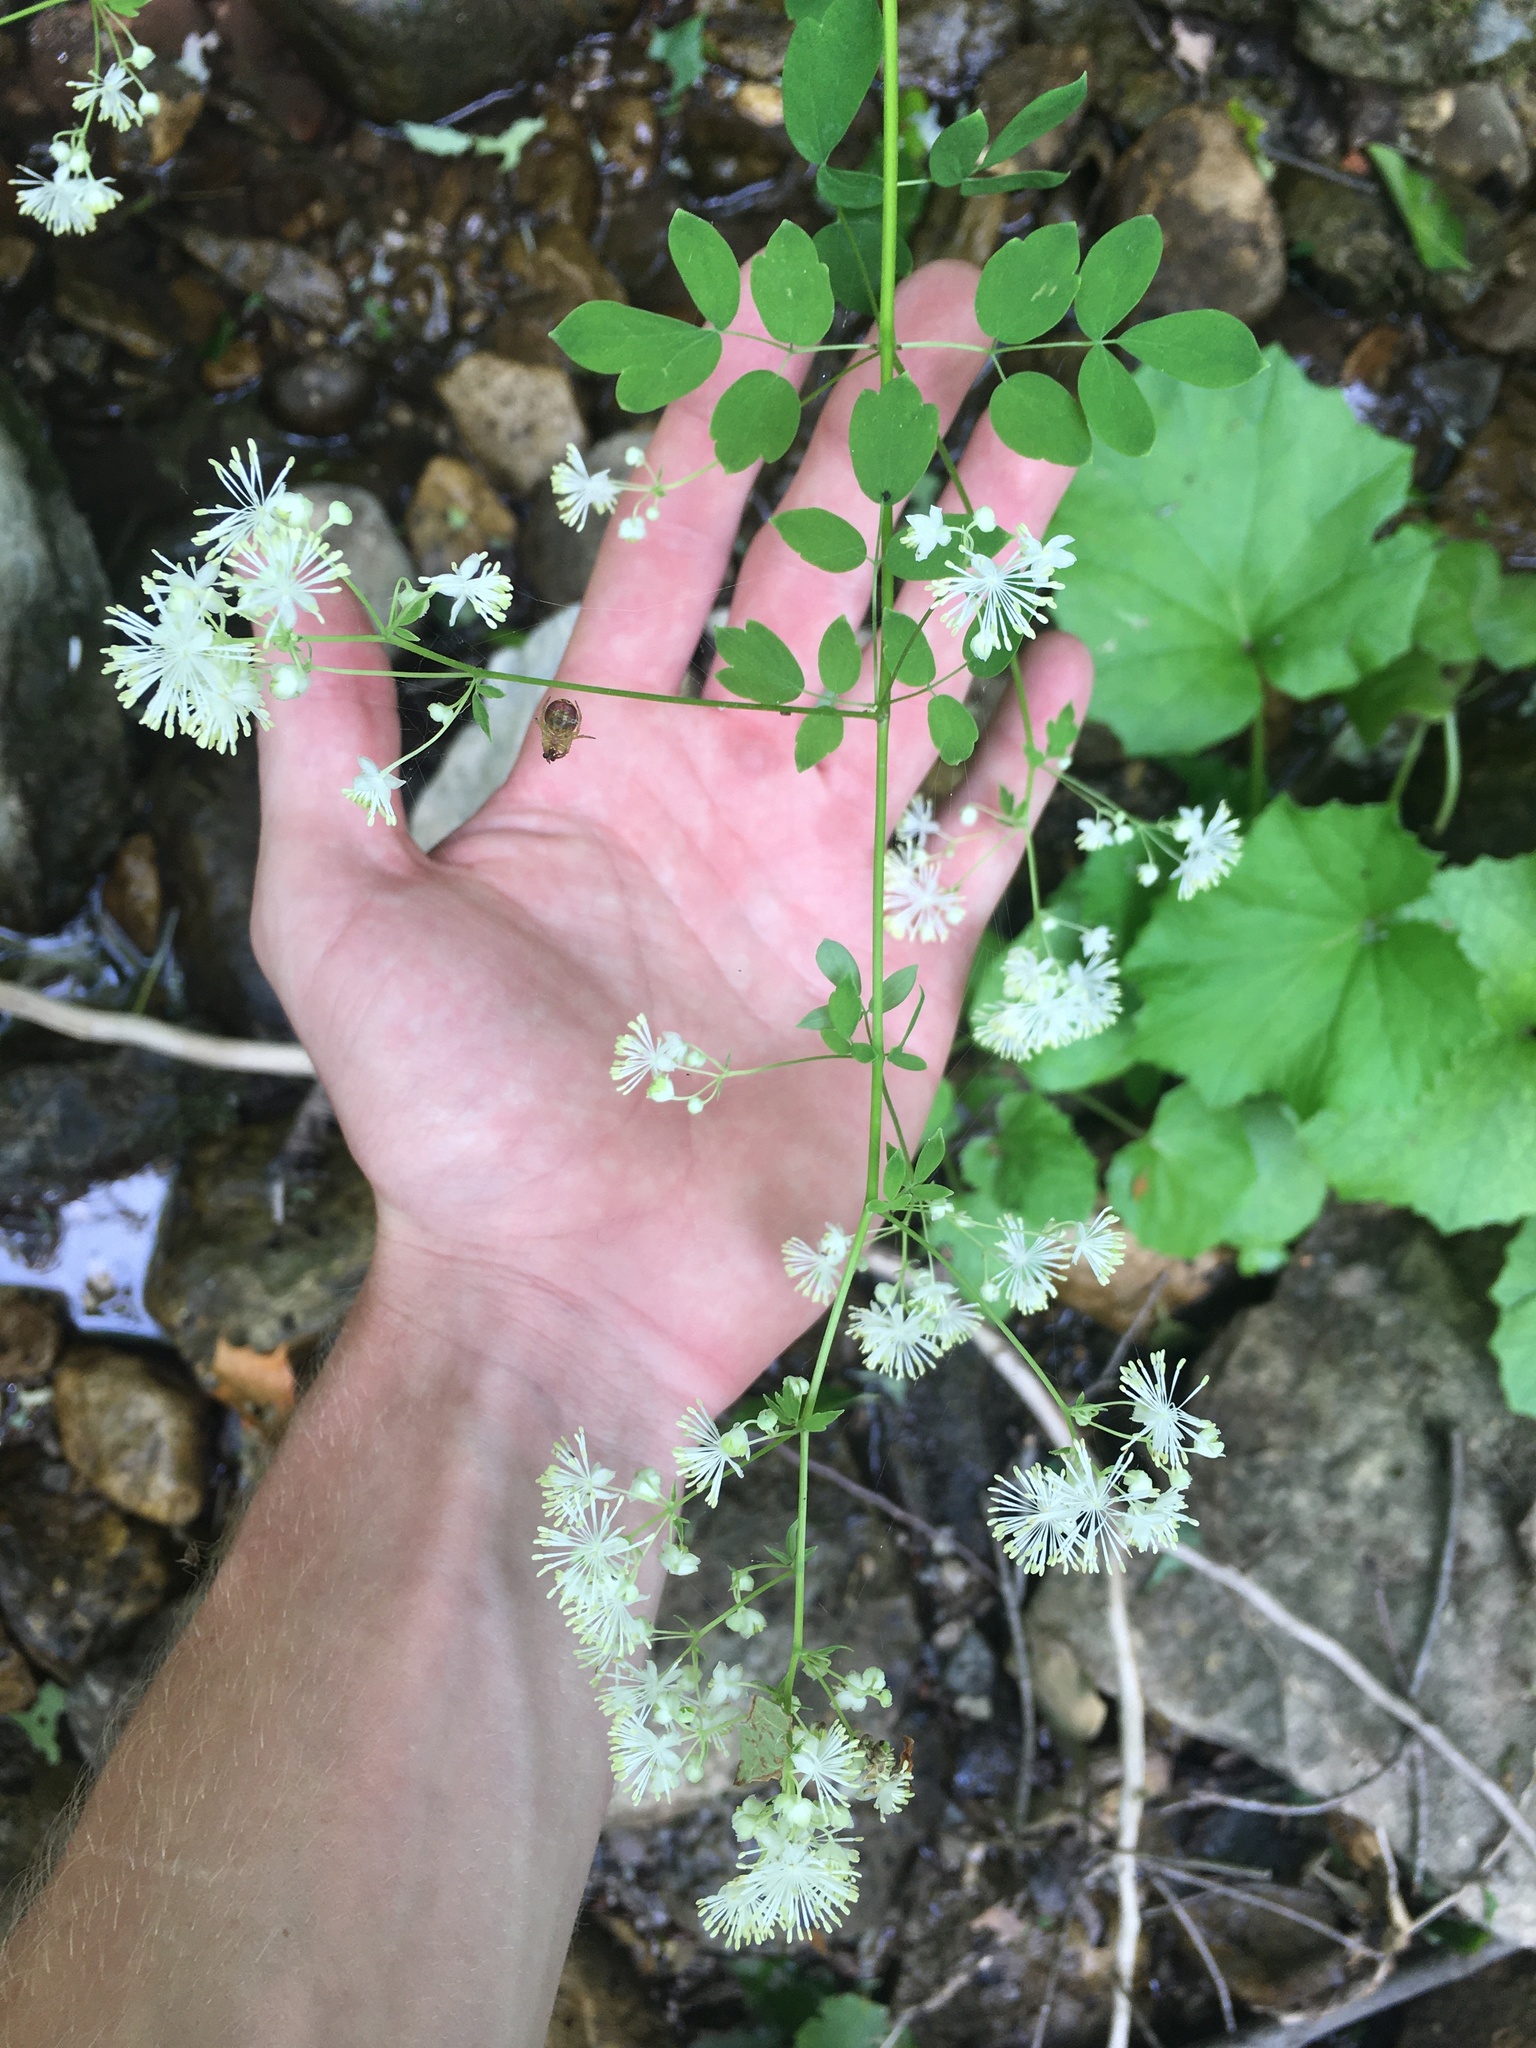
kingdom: Plantae
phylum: Tracheophyta
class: Magnoliopsida
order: Ranunculales
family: Ranunculaceae
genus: Thalictrum
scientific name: Thalictrum pubescens
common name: King-of-the-meadow
